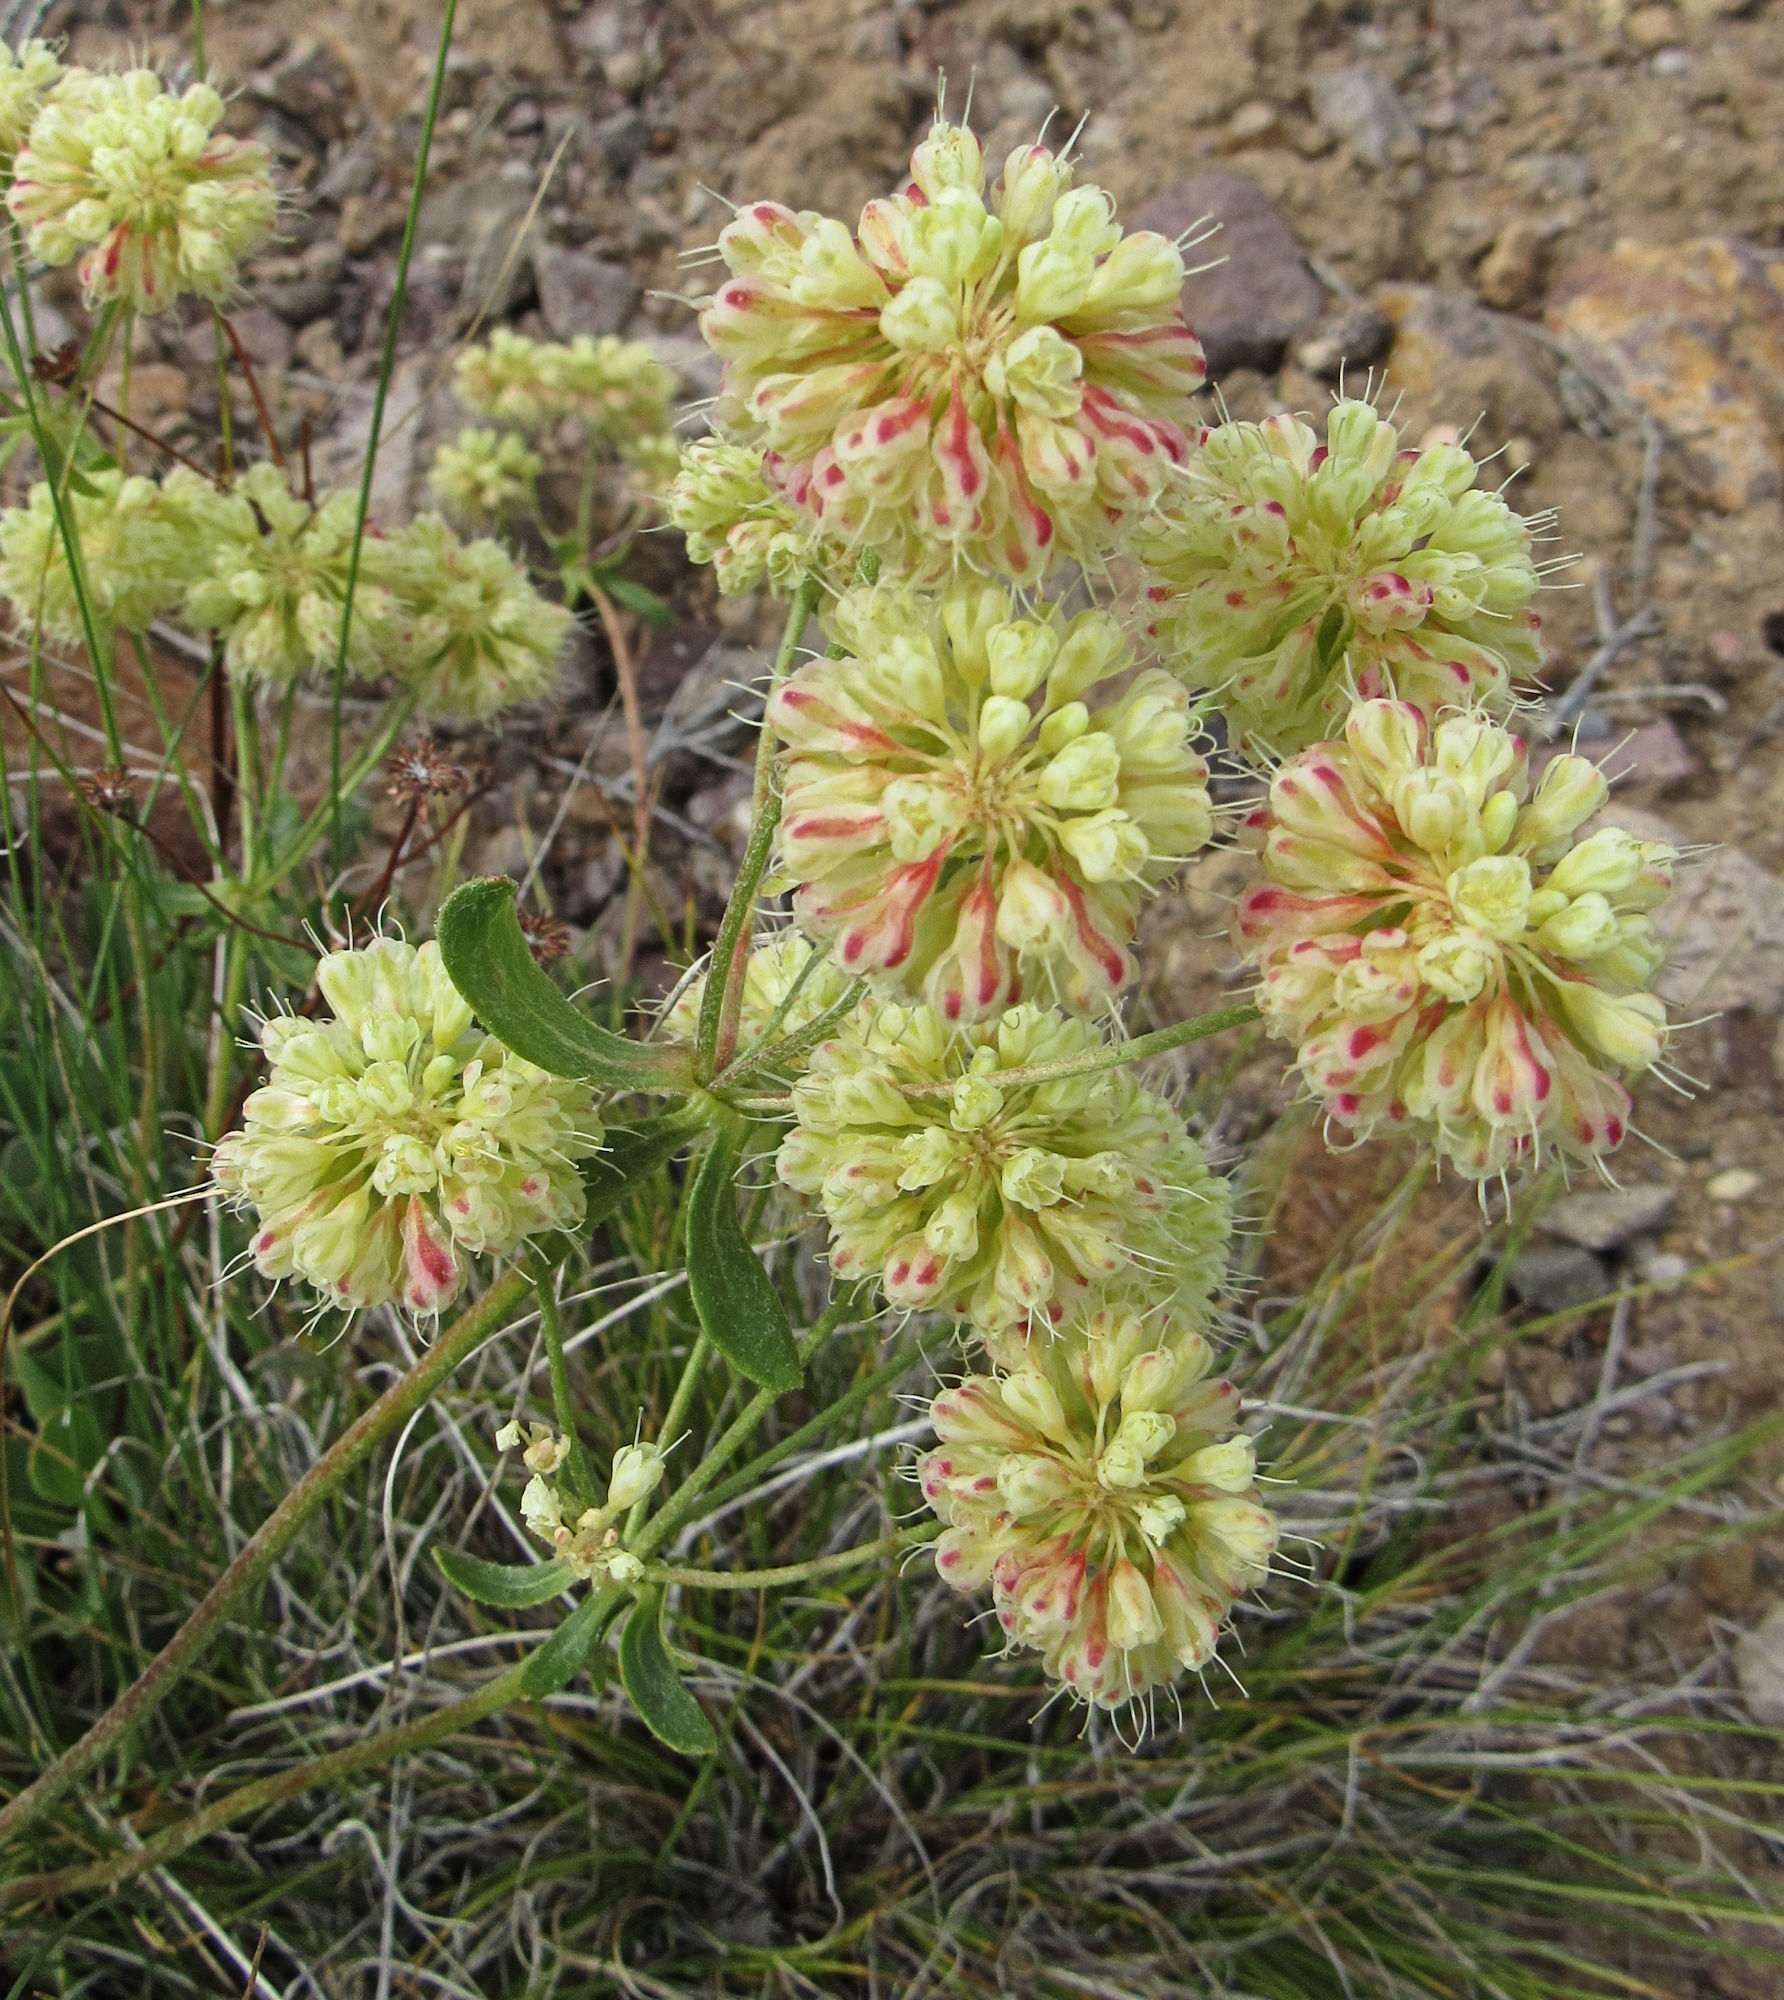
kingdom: Plantae
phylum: Tracheophyta
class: Magnoliopsida
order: Caryophyllales
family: Polygonaceae
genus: Eriogonum
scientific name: Eriogonum umbellatum
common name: Sulfur-buckwheat
